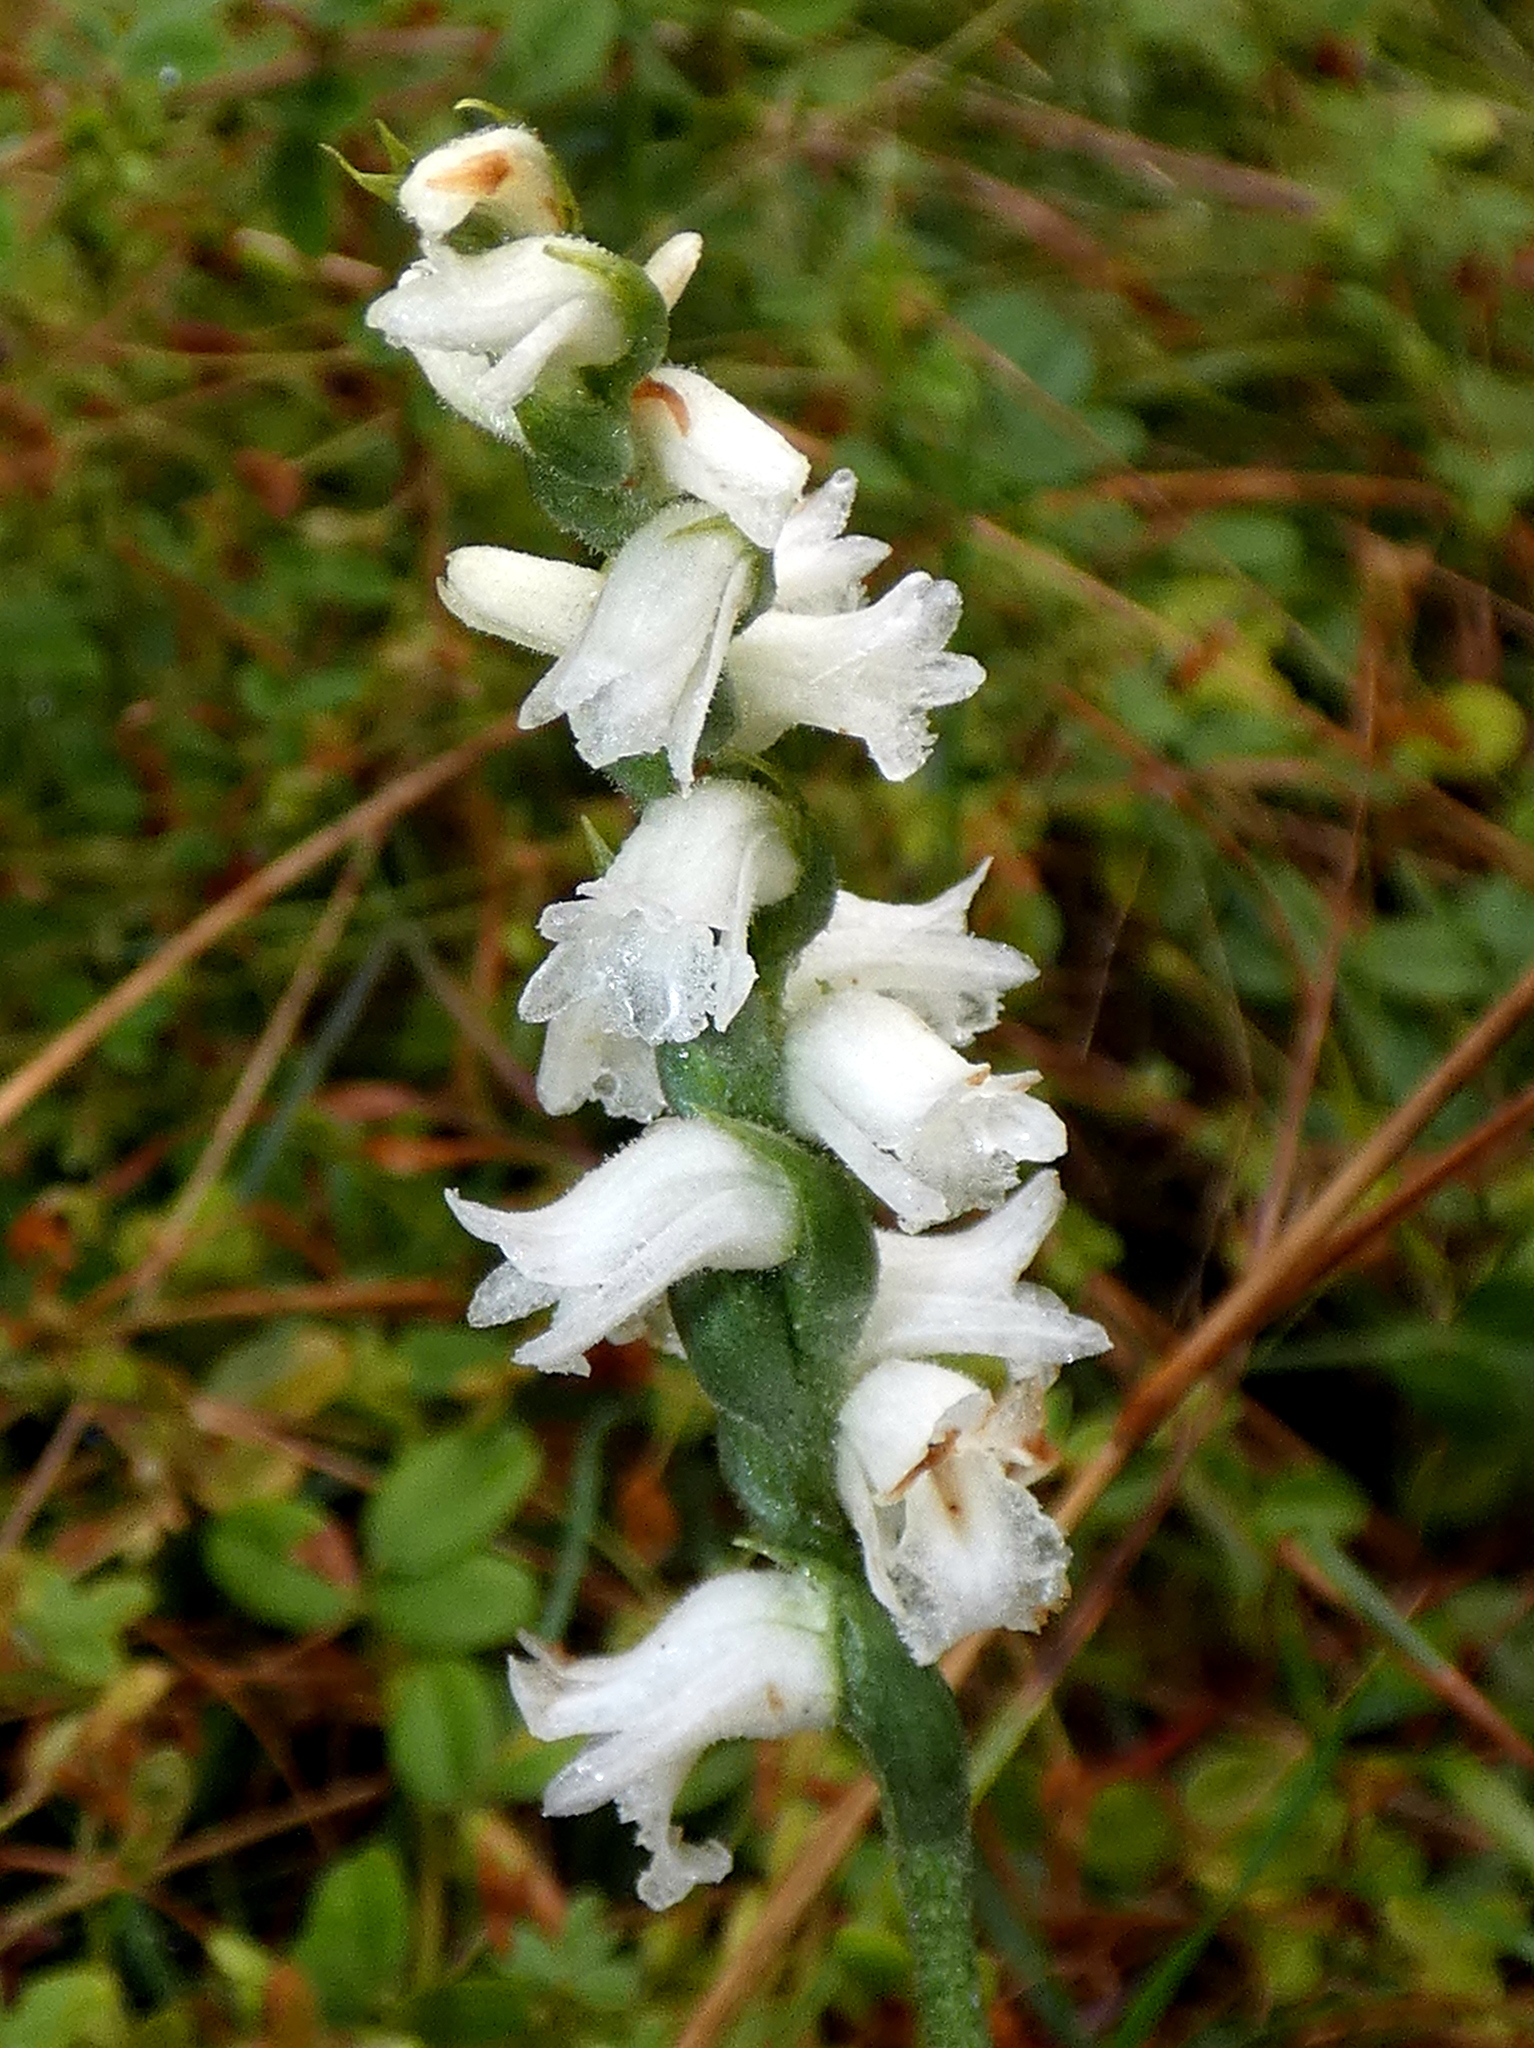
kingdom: Plantae
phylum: Tracheophyta
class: Liliopsida
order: Asparagales
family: Orchidaceae
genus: Spiranthes
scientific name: Spiranthes arcisepala
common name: Appalachian ladies'-tresses
